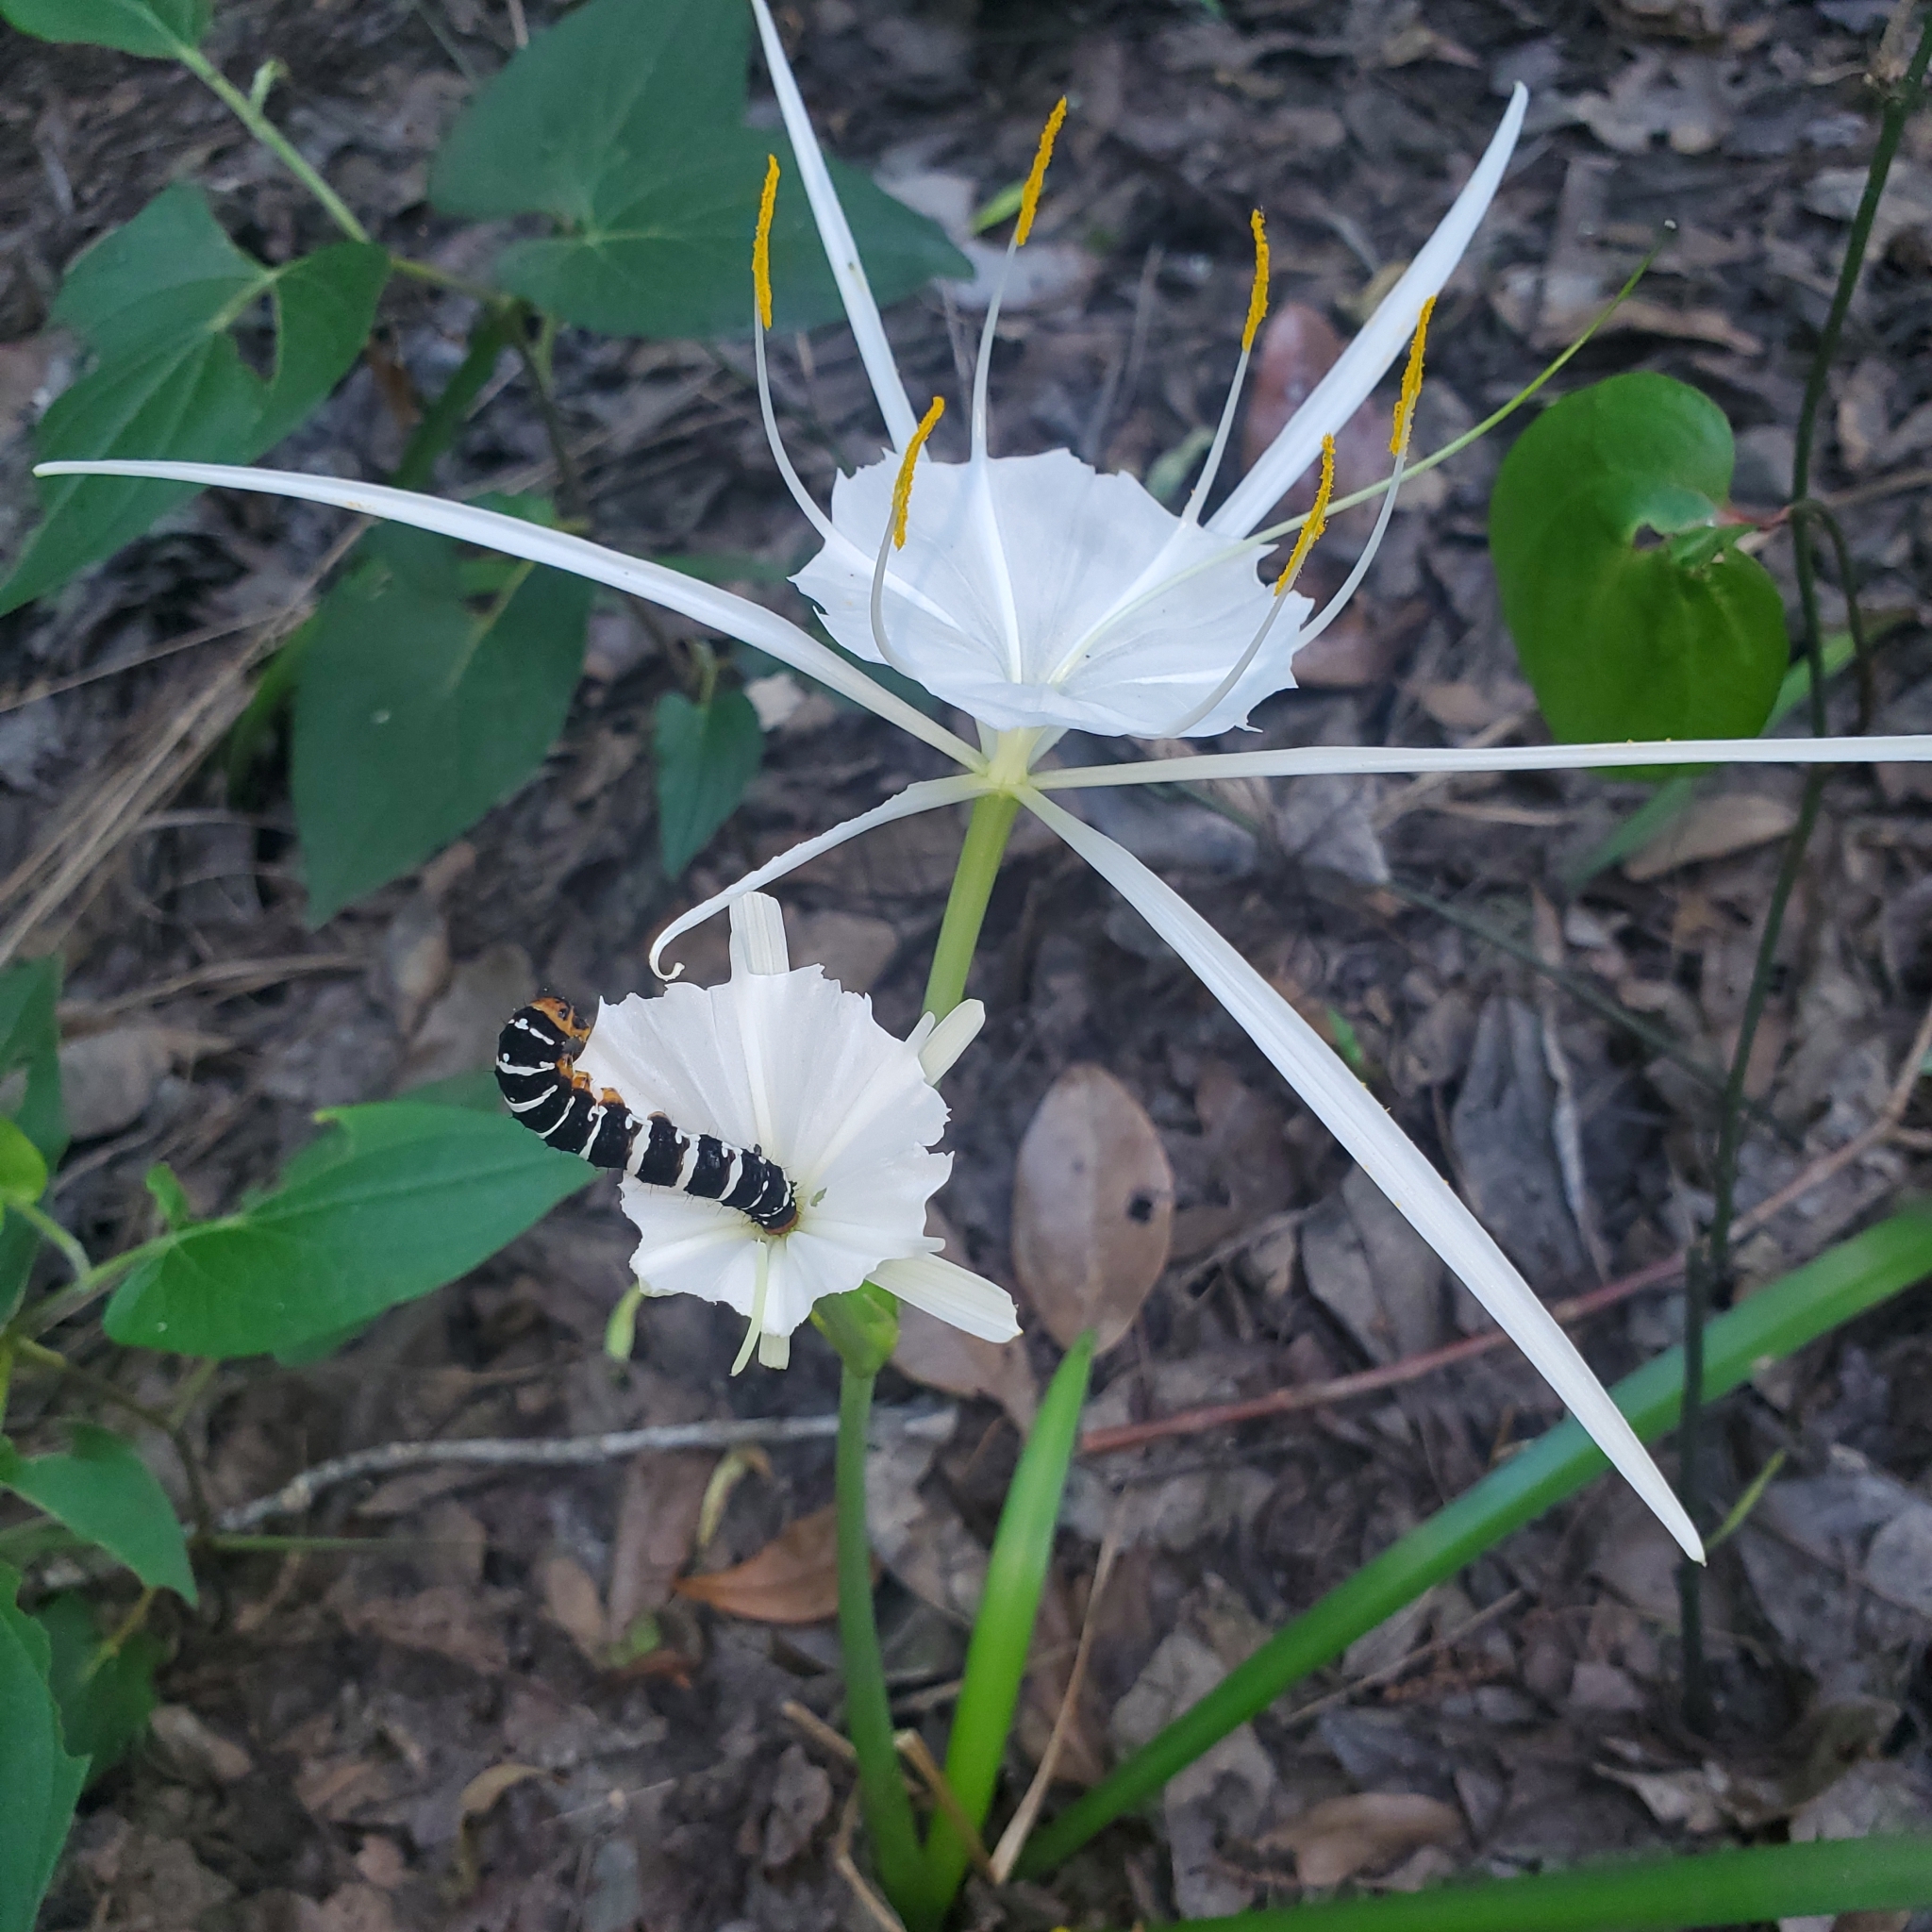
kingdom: Animalia
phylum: Arthropoda
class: Insecta
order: Lepidoptera
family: Noctuidae
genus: Xanthopastis
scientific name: Xanthopastis regnatrix
